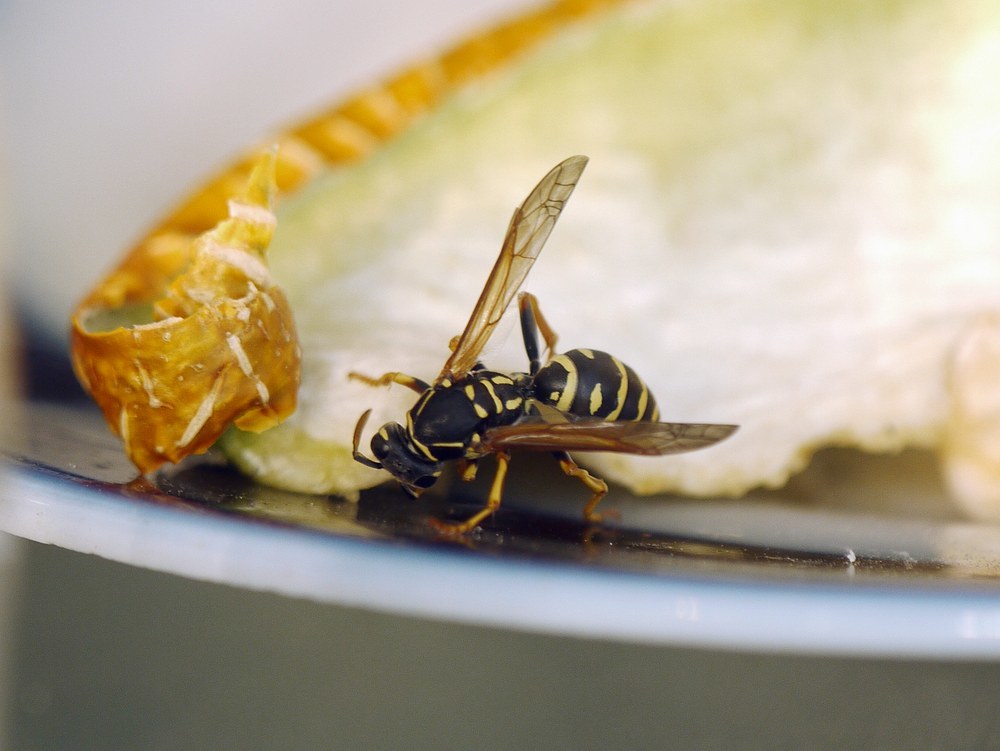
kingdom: Animalia
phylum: Arthropoda
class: Insecta
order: Hymenoptera
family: Eumenidae
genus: Polistes
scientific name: Polistes nimpha
